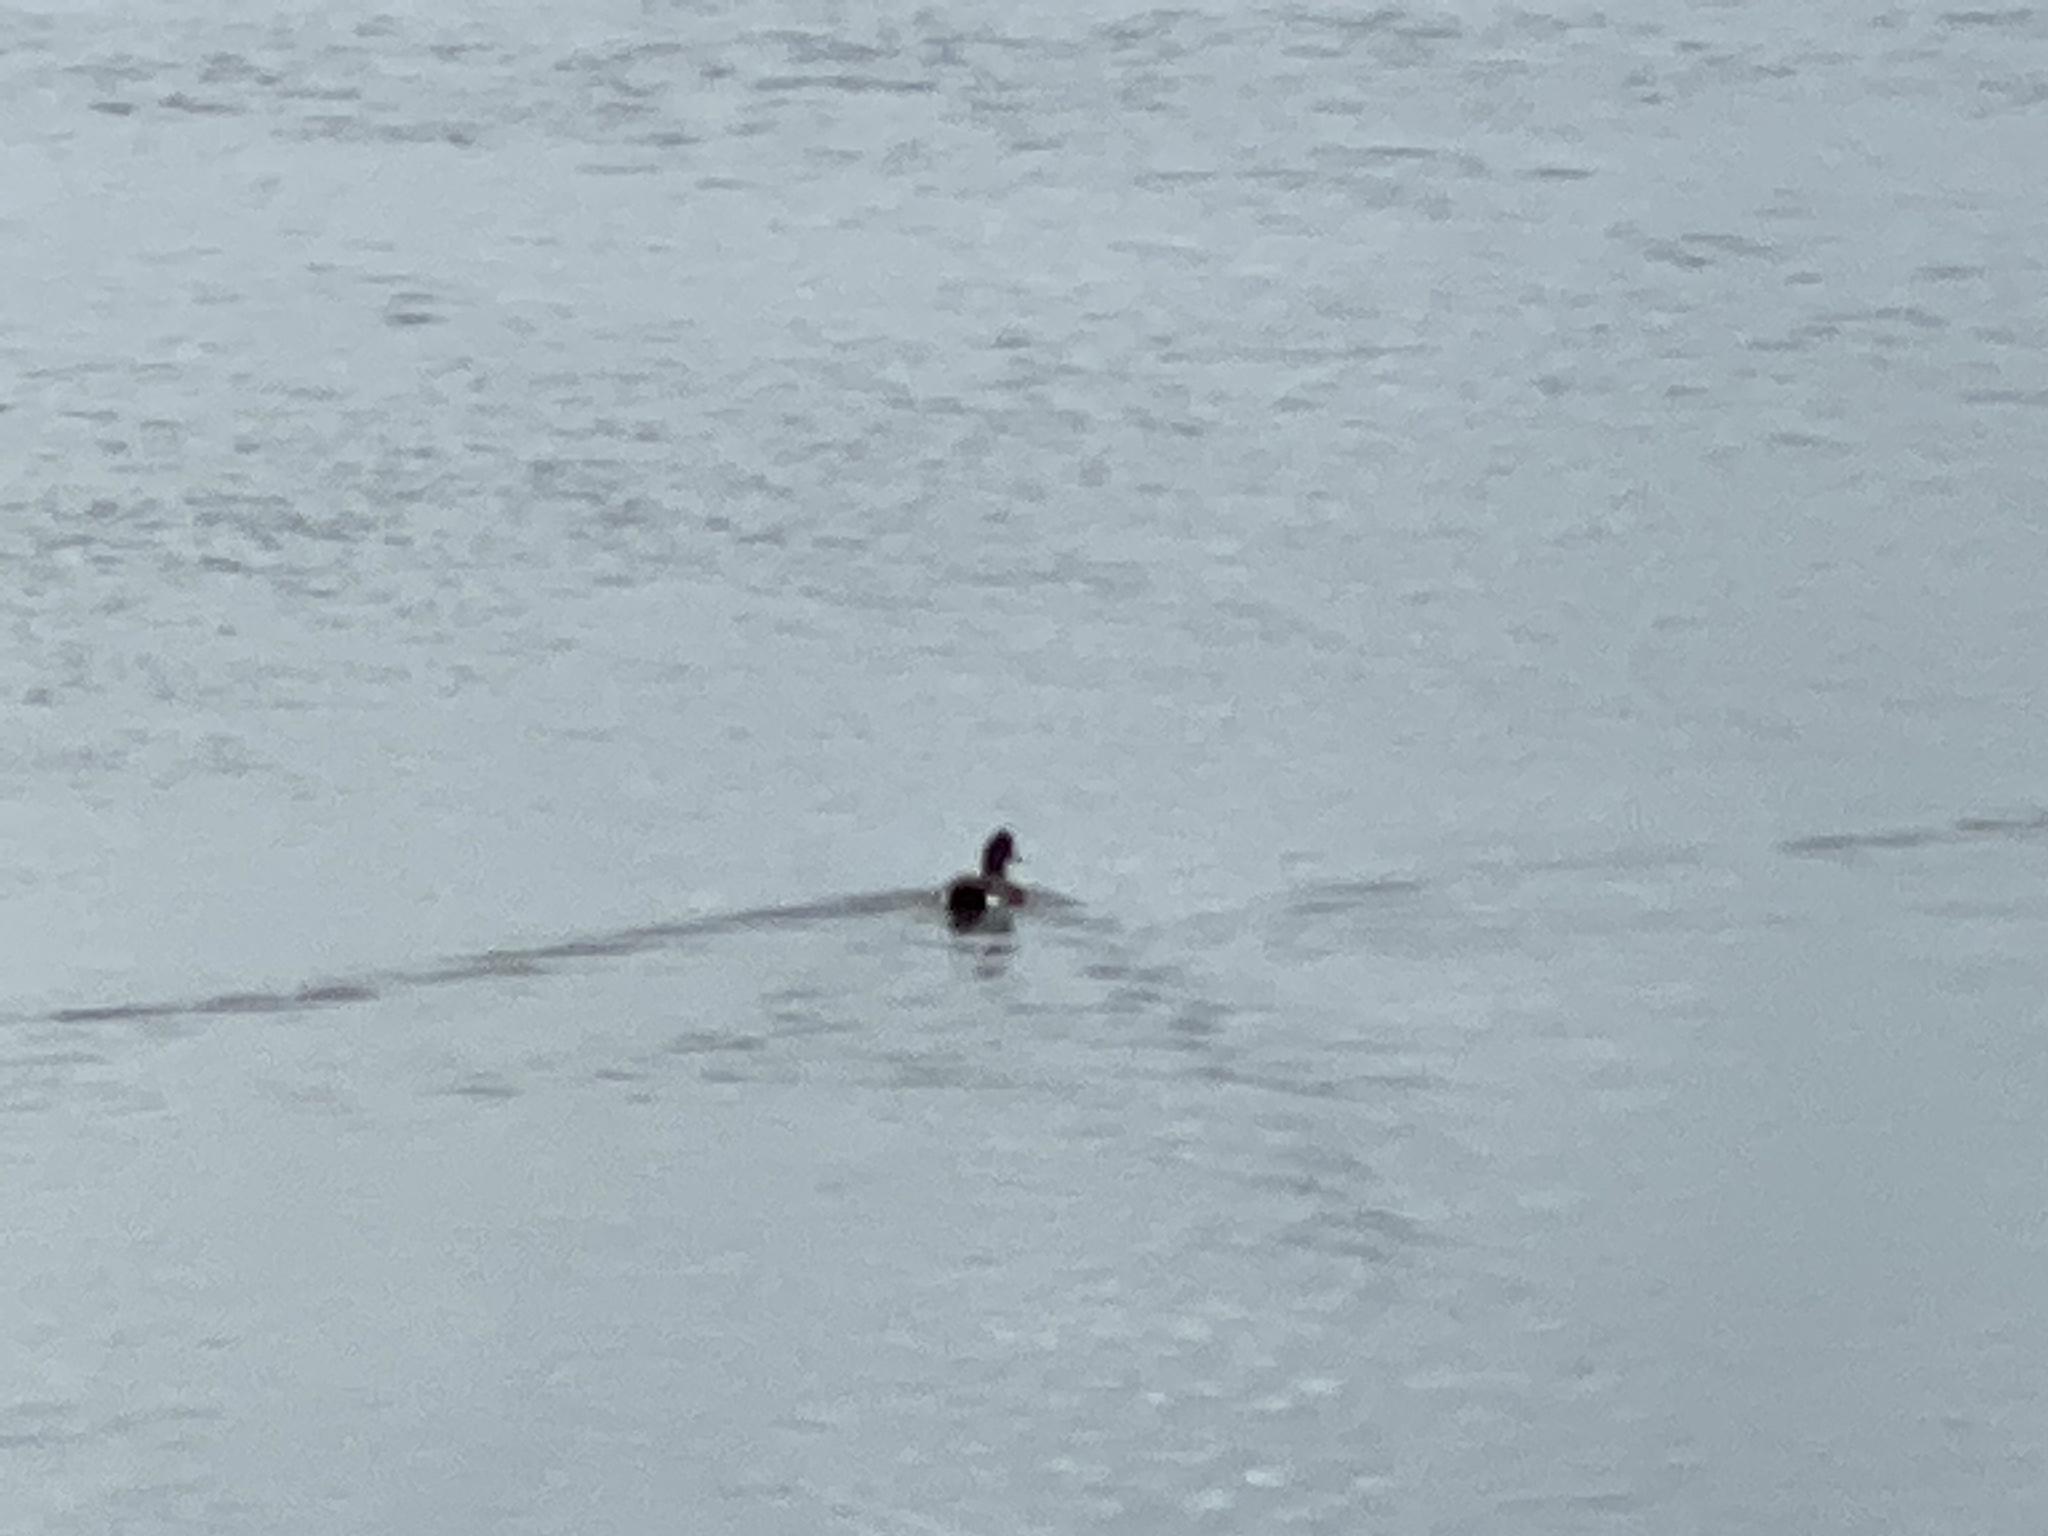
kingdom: Animalia
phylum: Chordata
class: Aves
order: Anseriformes
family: Anatidae
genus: Mareca
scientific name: Mareca americana
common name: American wigeon
